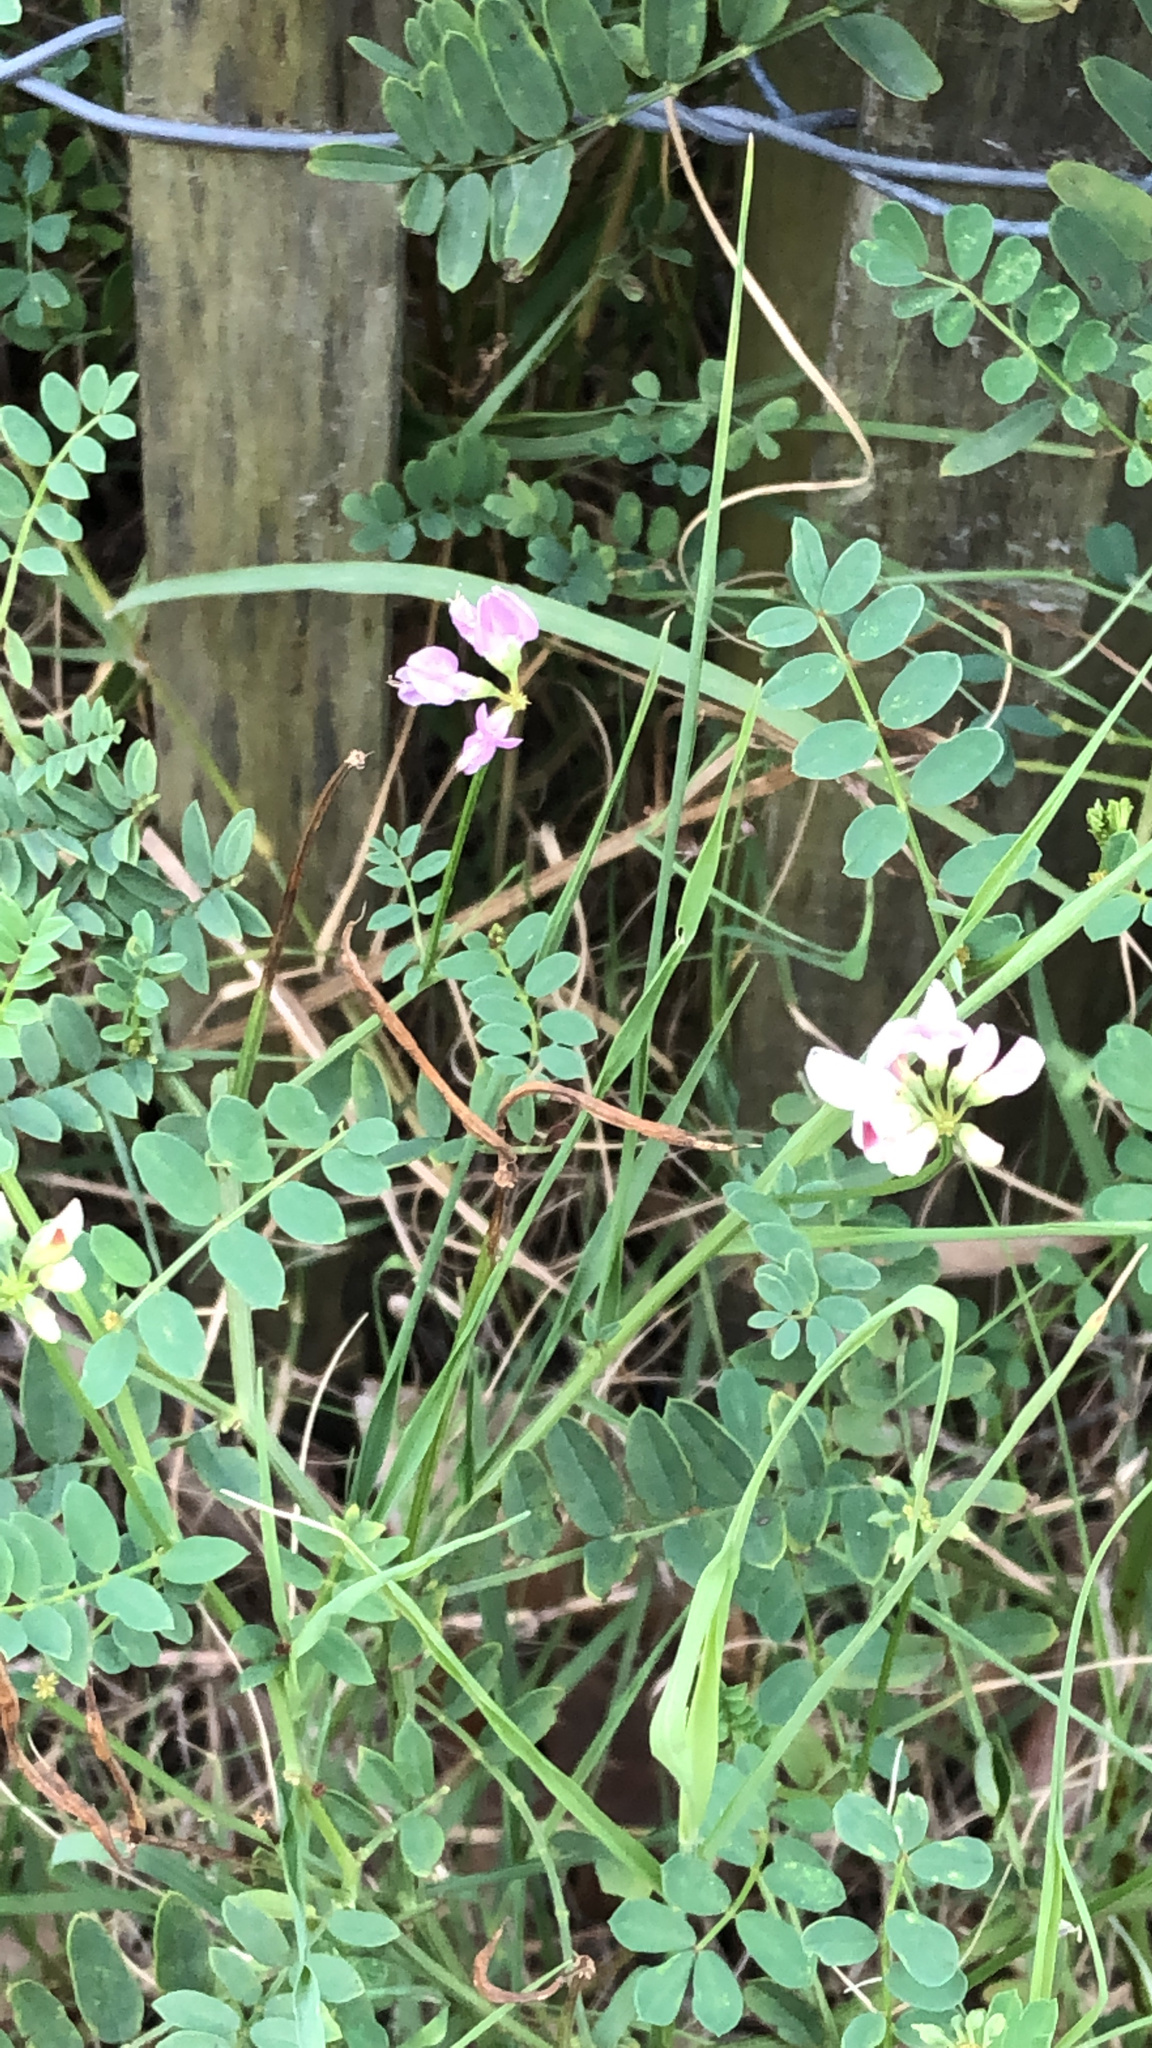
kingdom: Plantae
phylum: Tracheophyta
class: Magnoliopsida
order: Fabales
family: Fabaceae
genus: Coronilla
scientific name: Coronilla varia
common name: Crownvetch
